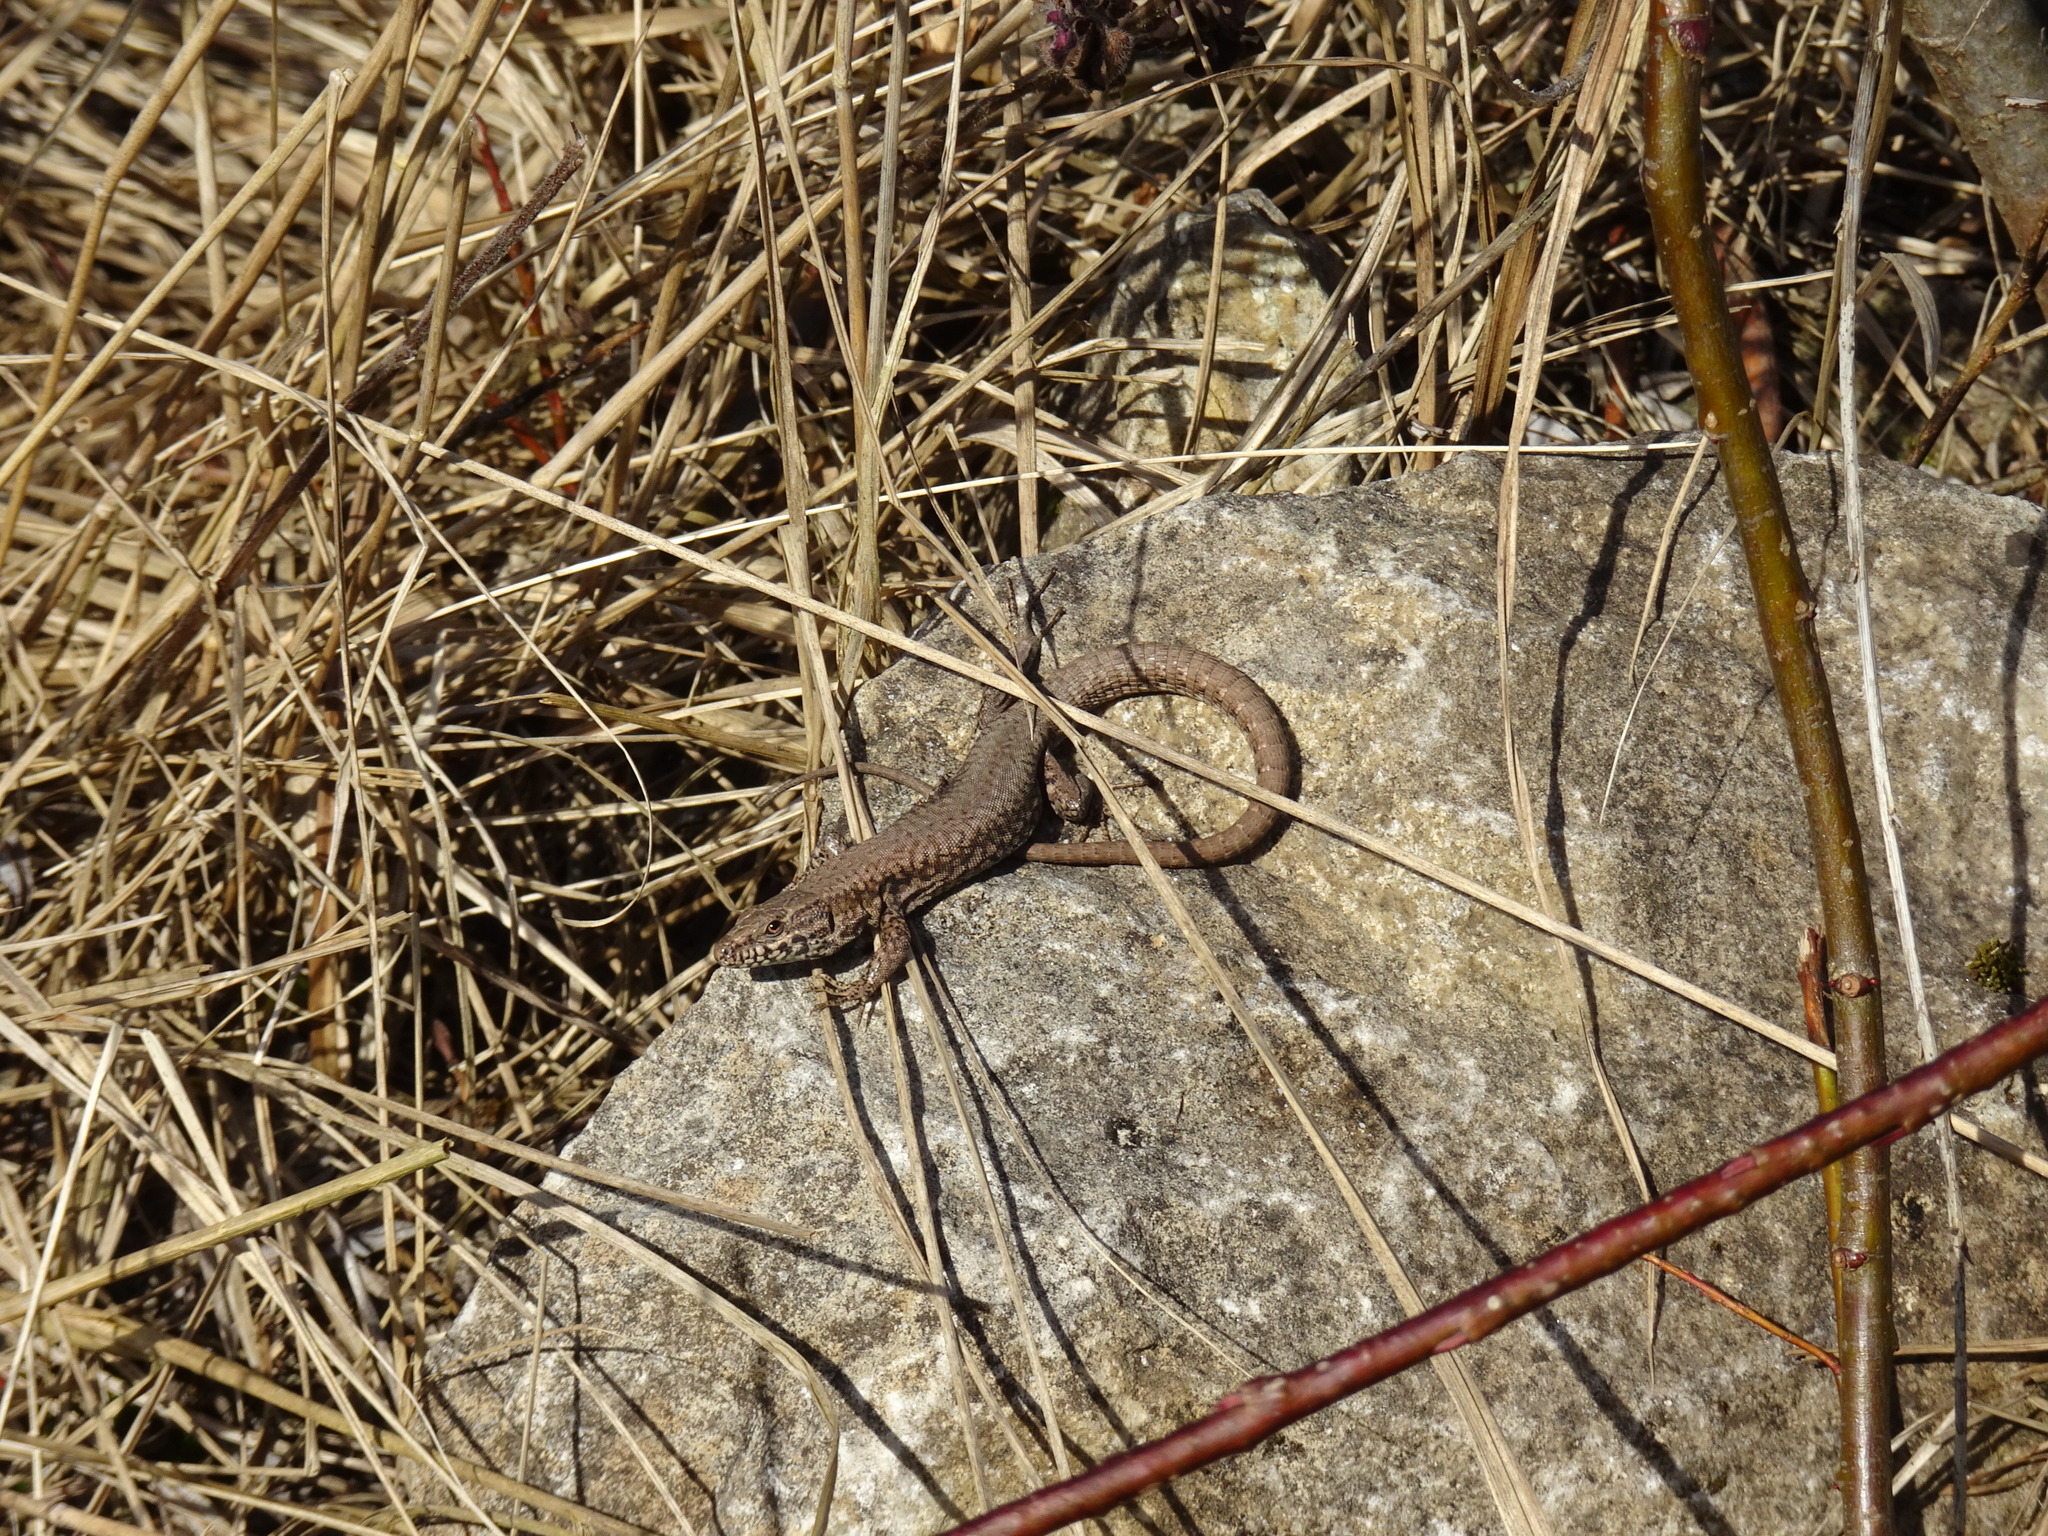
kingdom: Animalia
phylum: Chordata
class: Squamata
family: Lacertidae
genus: Podarcis
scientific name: Podarcis muralis
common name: Common wall lizard
